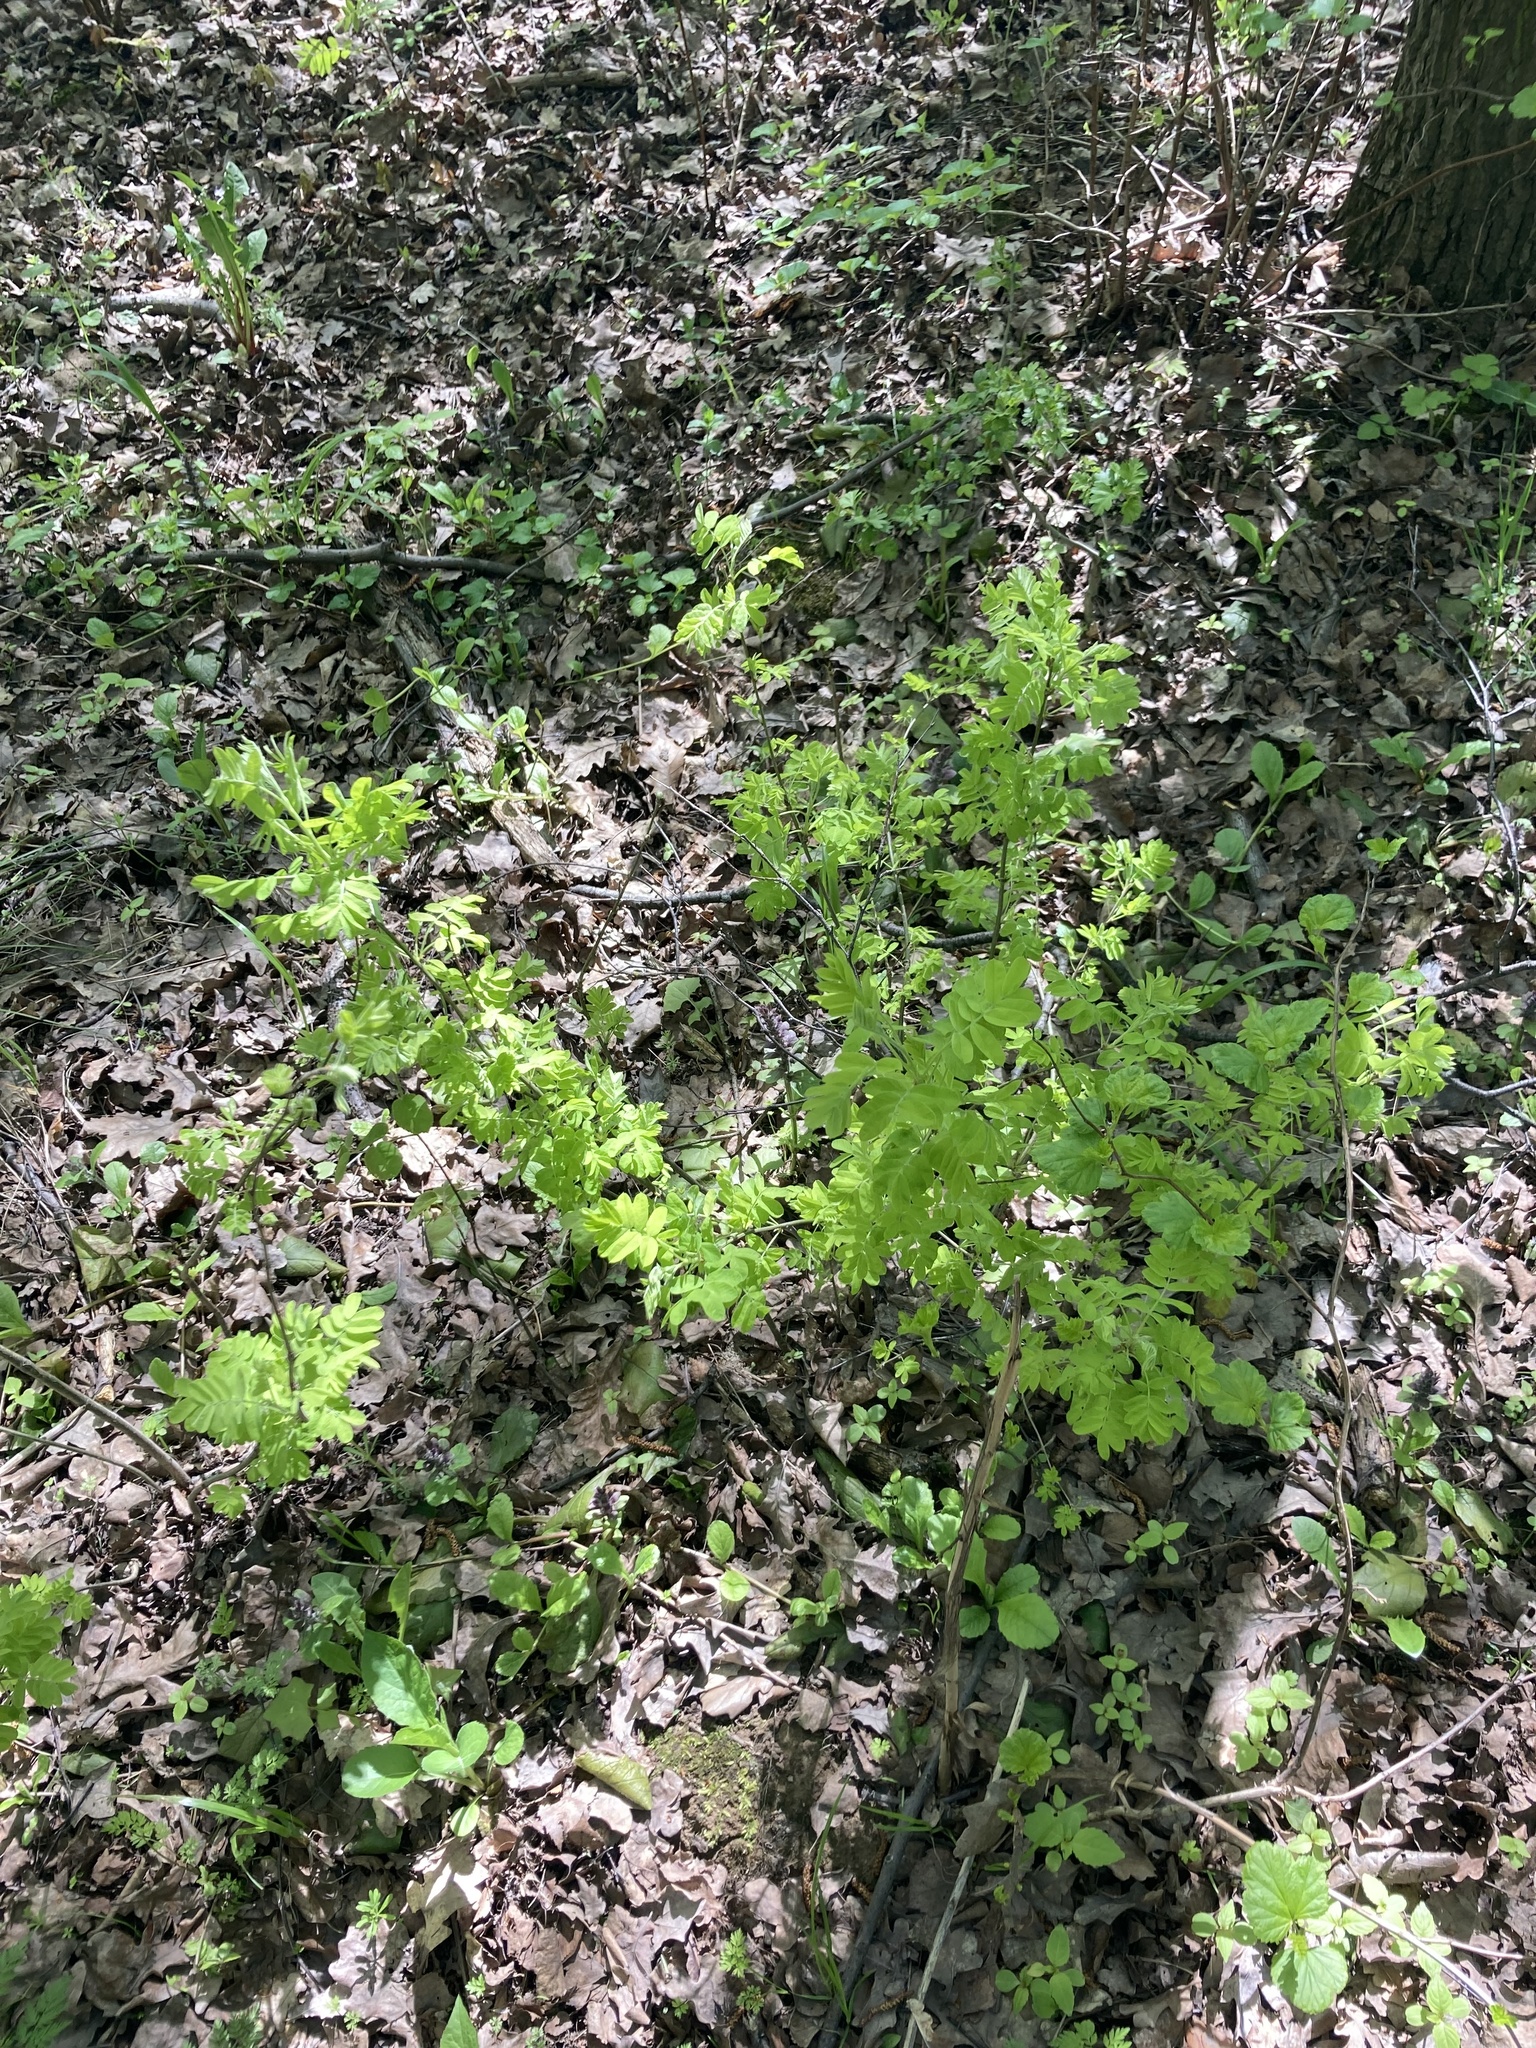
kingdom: Plantae
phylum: Tracheophyta
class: Magnoliopsida
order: Fabales
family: Fabaceae
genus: Caragana
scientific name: Caragana arborescens
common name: Siberian peashrub
